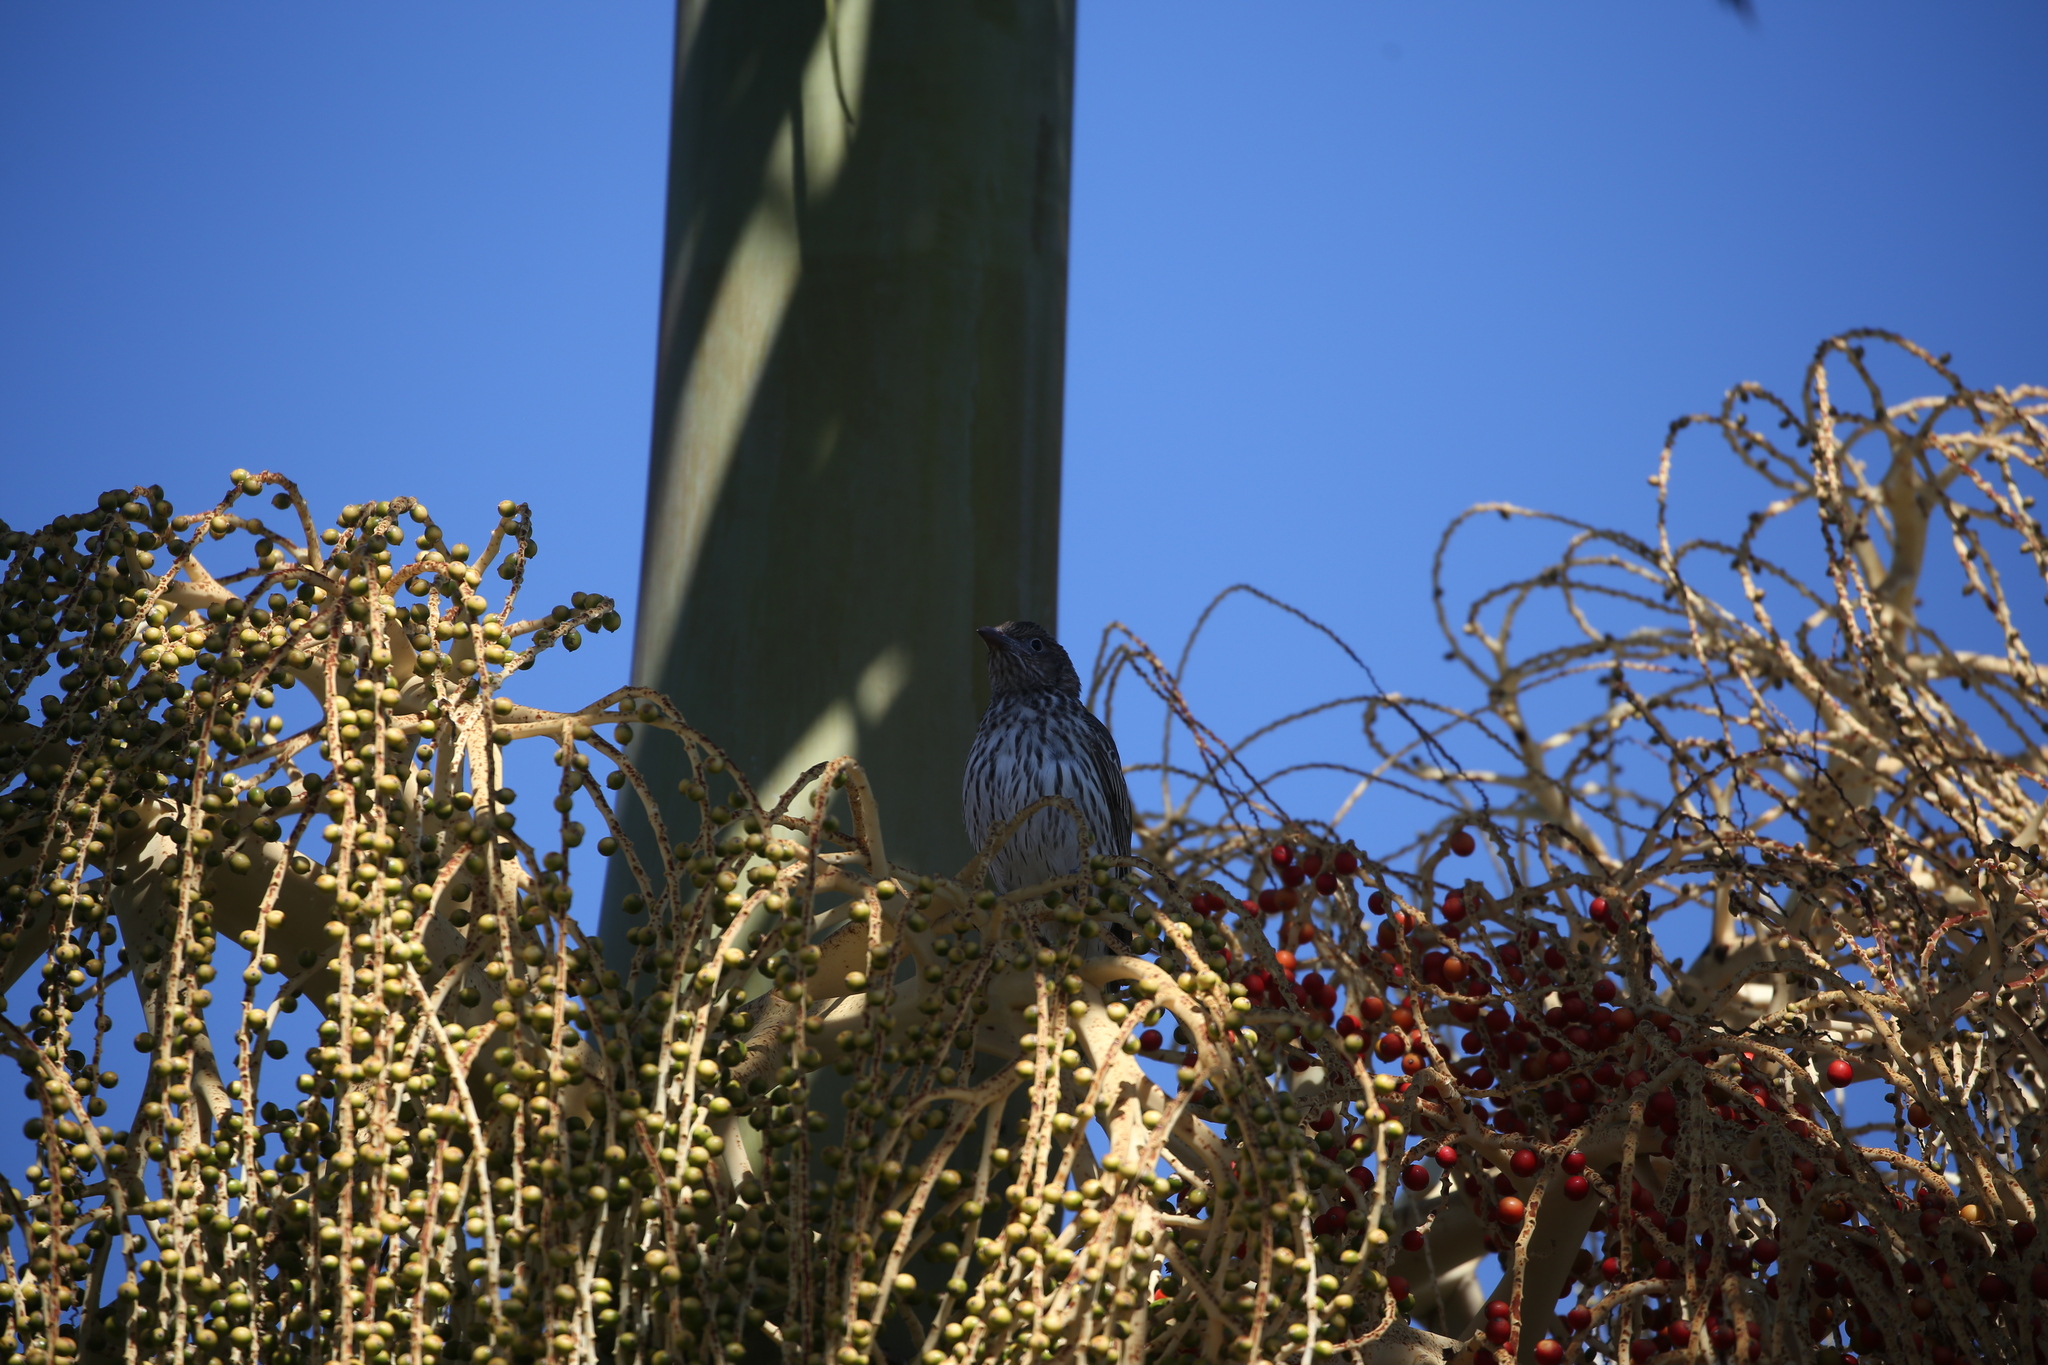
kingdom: Animalia
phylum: Chordata
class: Aves
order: Passeriformes
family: Oriolidae
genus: Sphecotheres
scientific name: Sphecotheres vieilloti
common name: Australasian figbird
